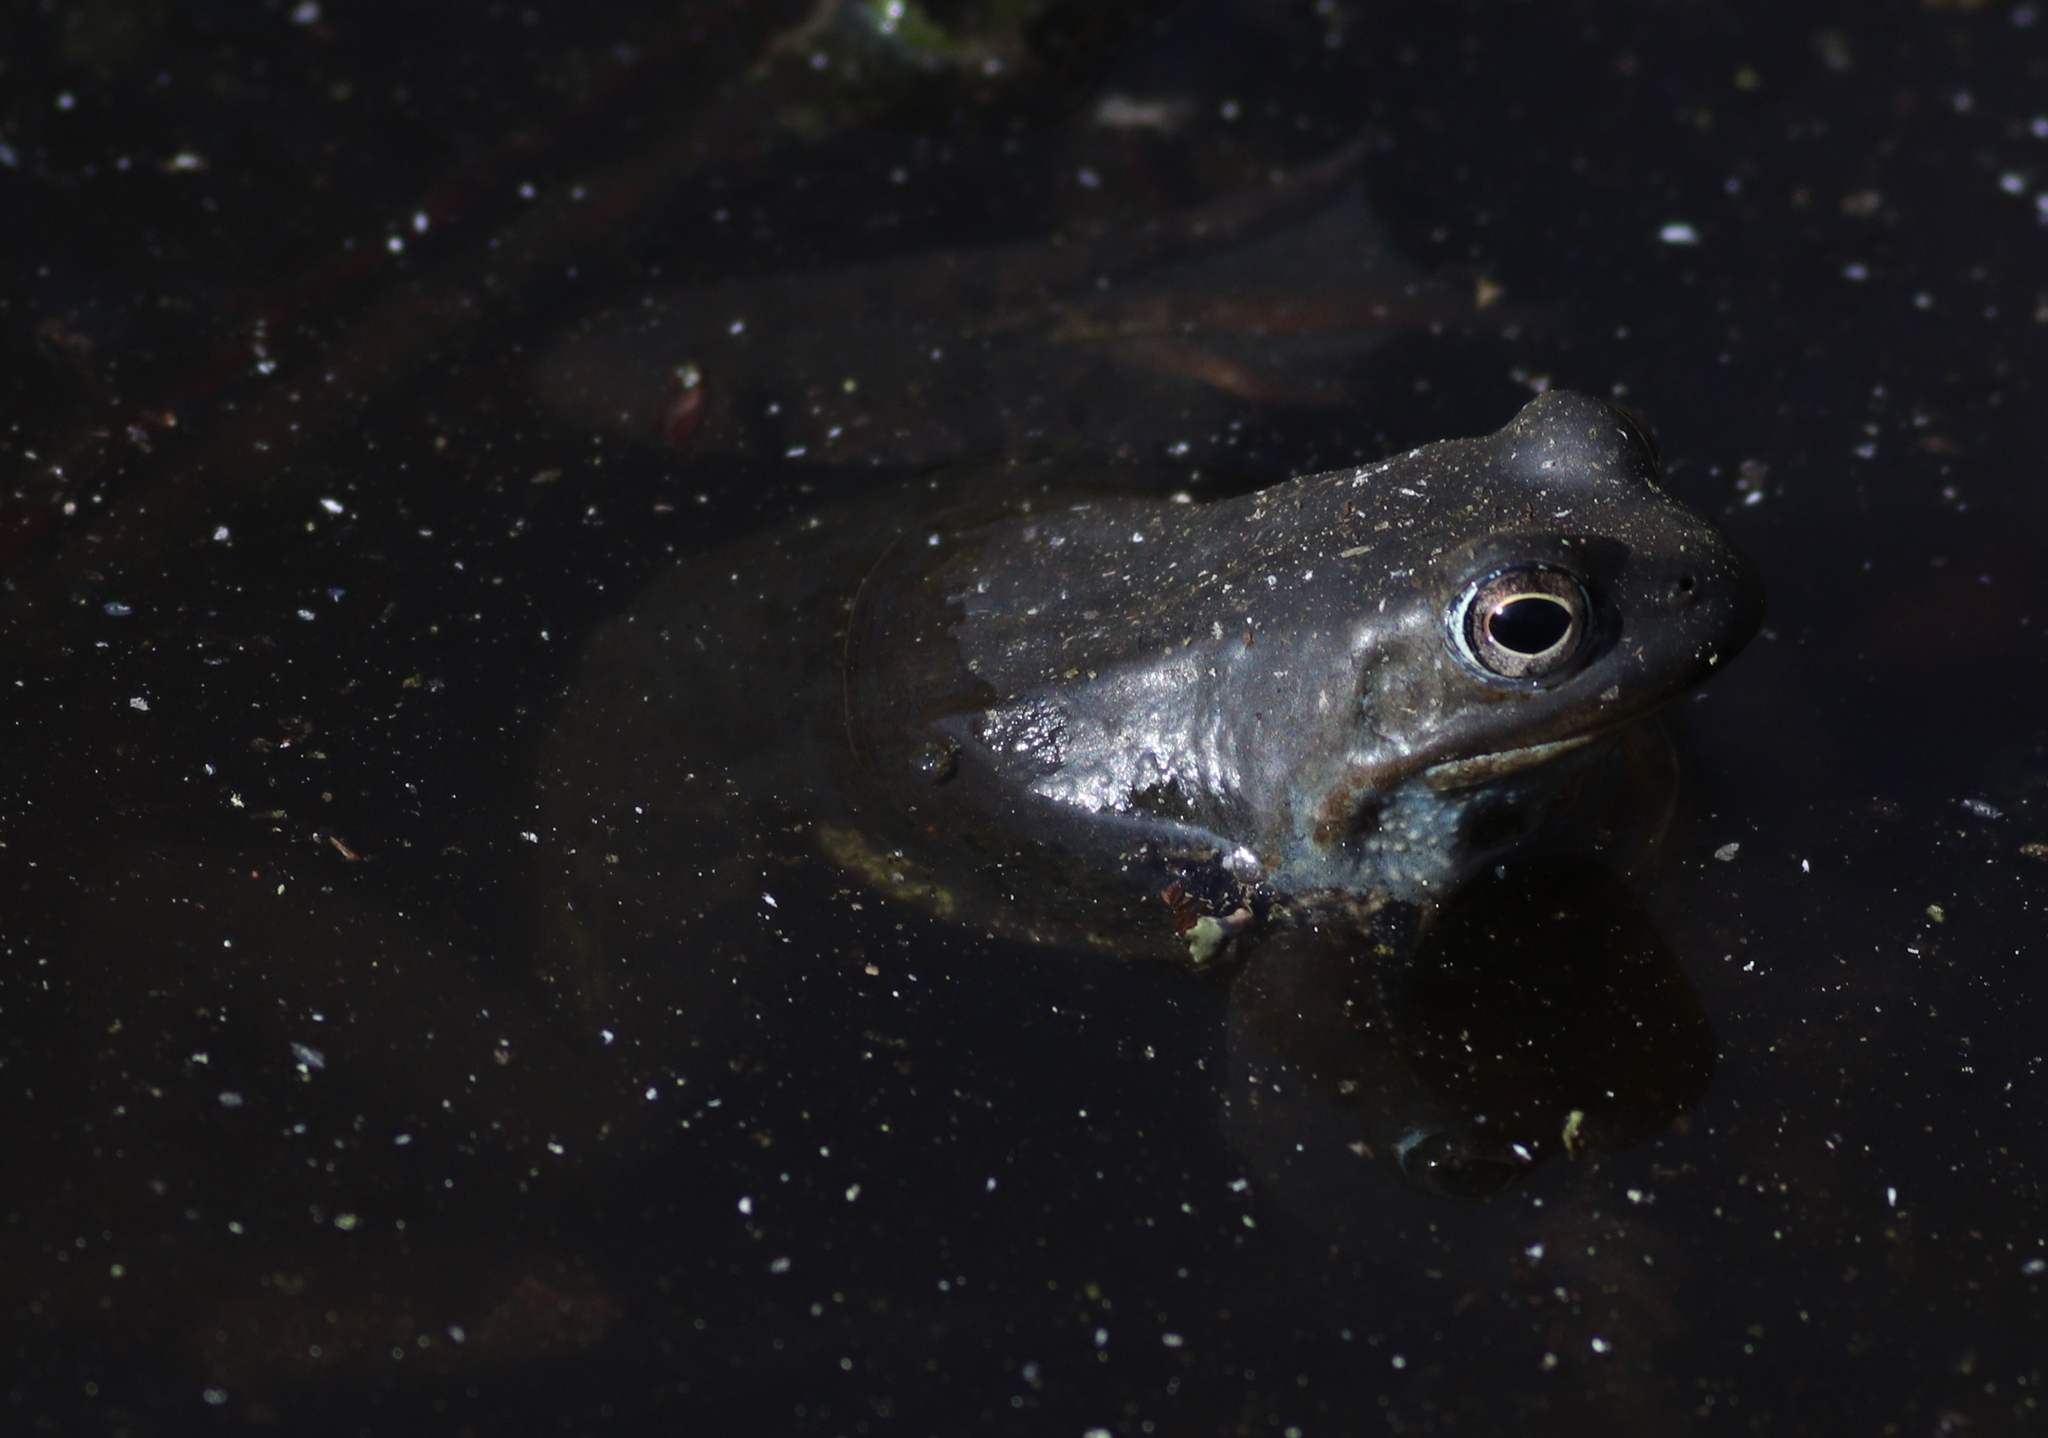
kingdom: Animalia
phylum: Chordata
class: Amphibia
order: Anura
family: Ranidae
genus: Rana
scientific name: Rana temporaria
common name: Common frog
